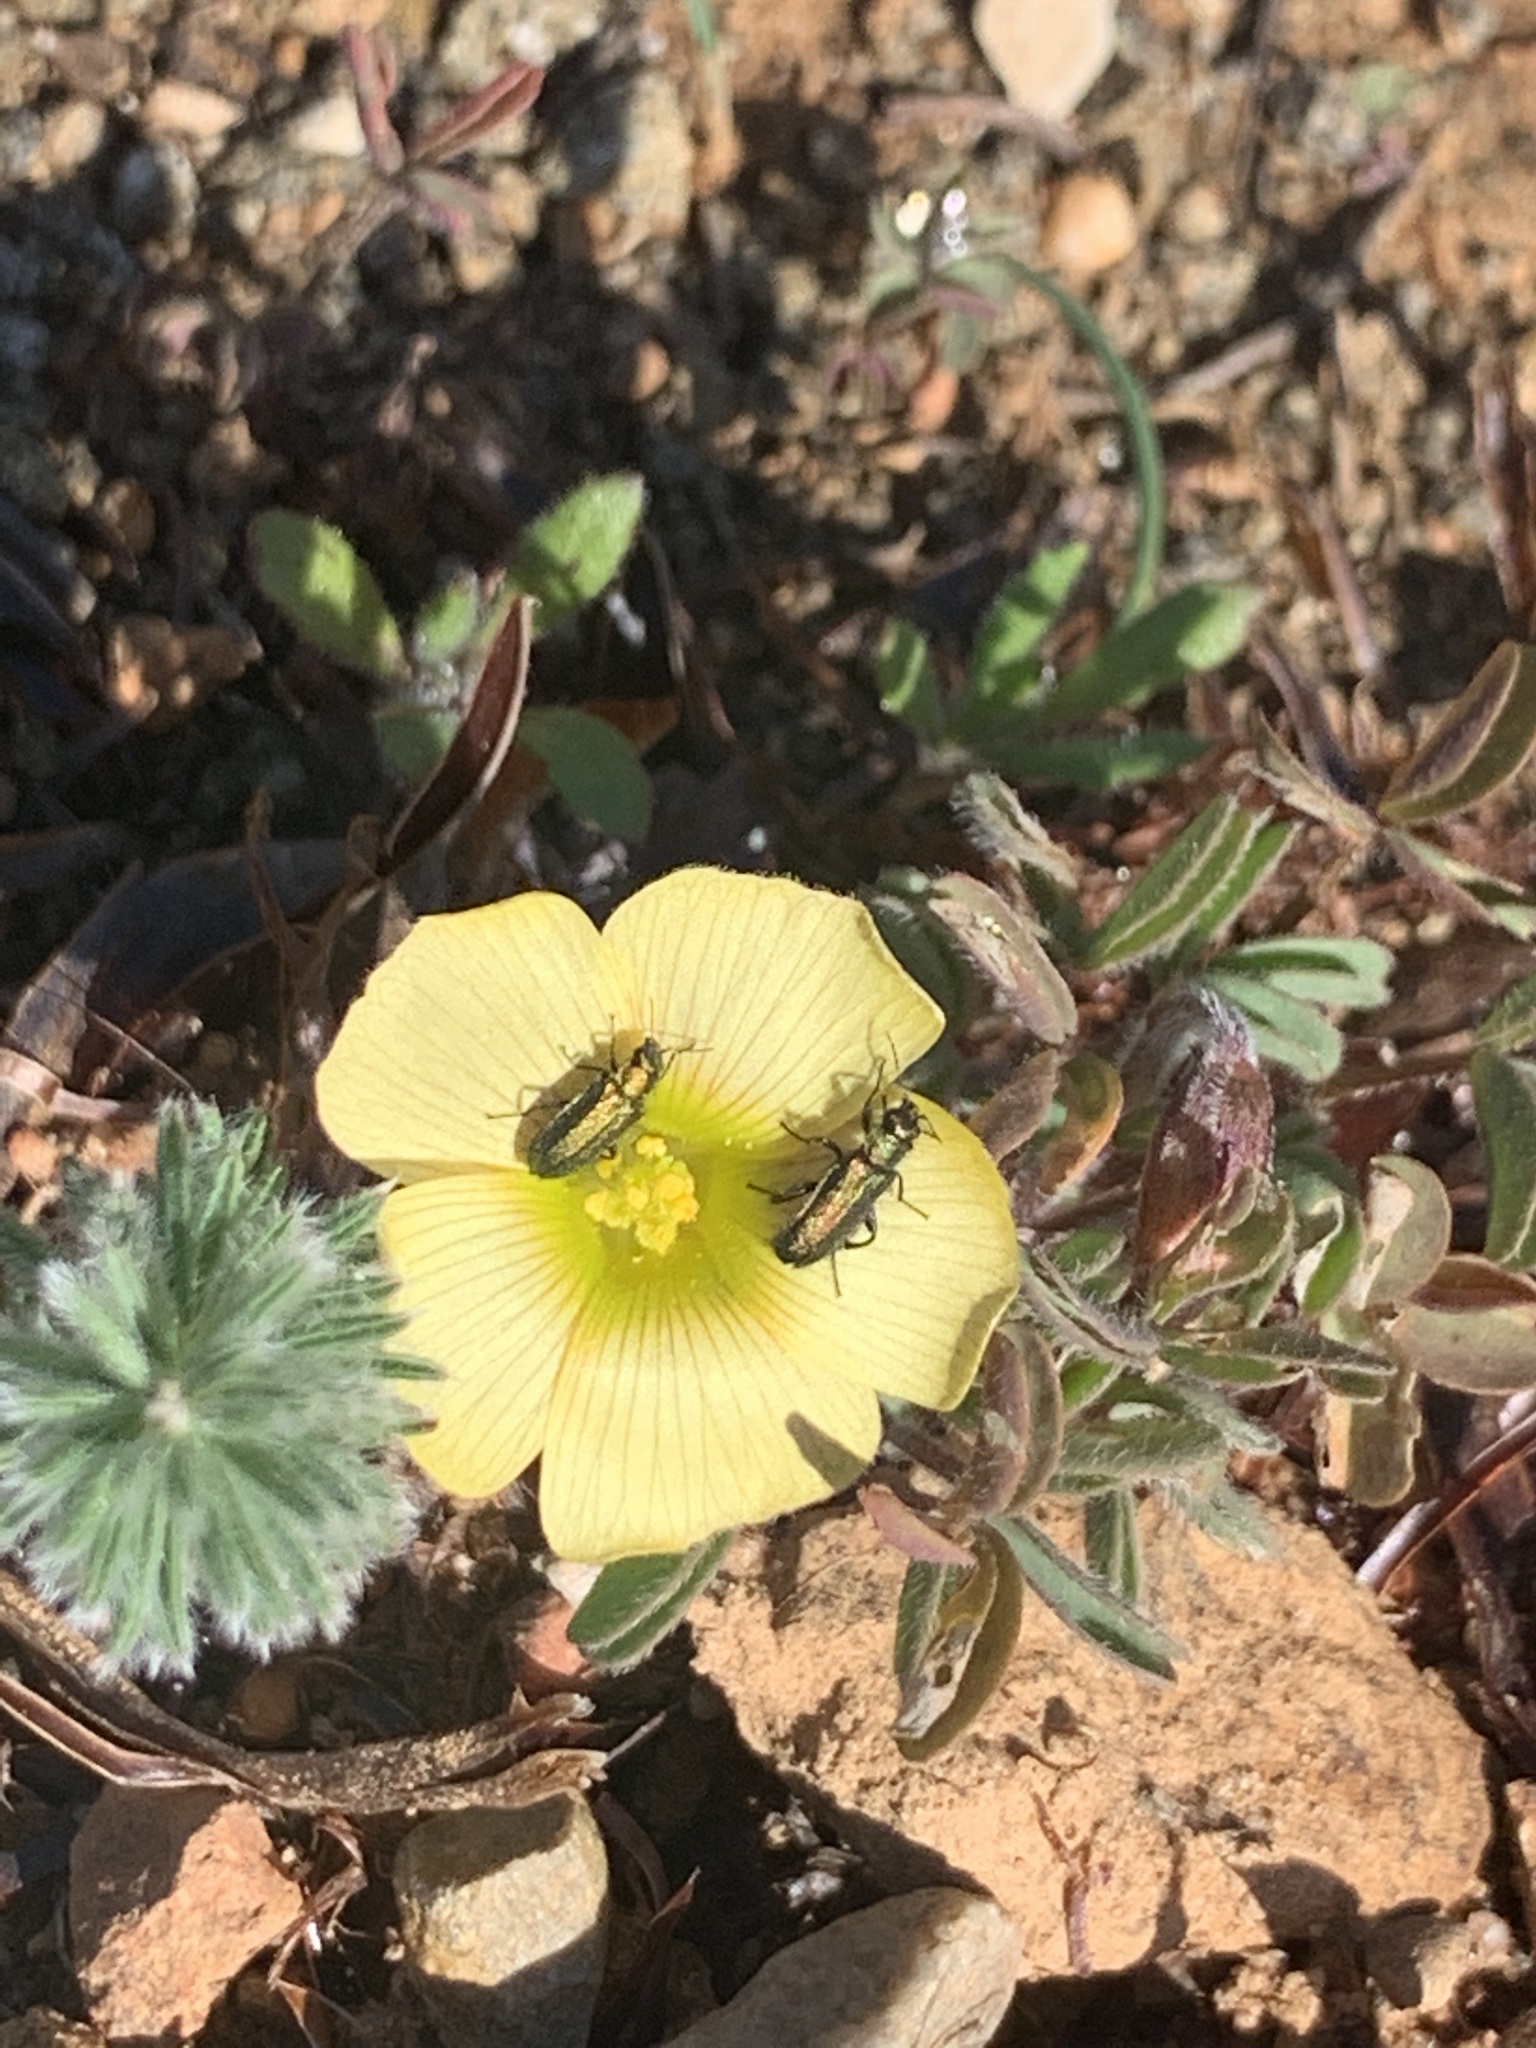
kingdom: Plantae
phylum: Tracheophyta
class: Magnoliopsida
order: Oxalidales
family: Oxalidaceae
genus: Oxalis
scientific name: Oxalis obtusa
